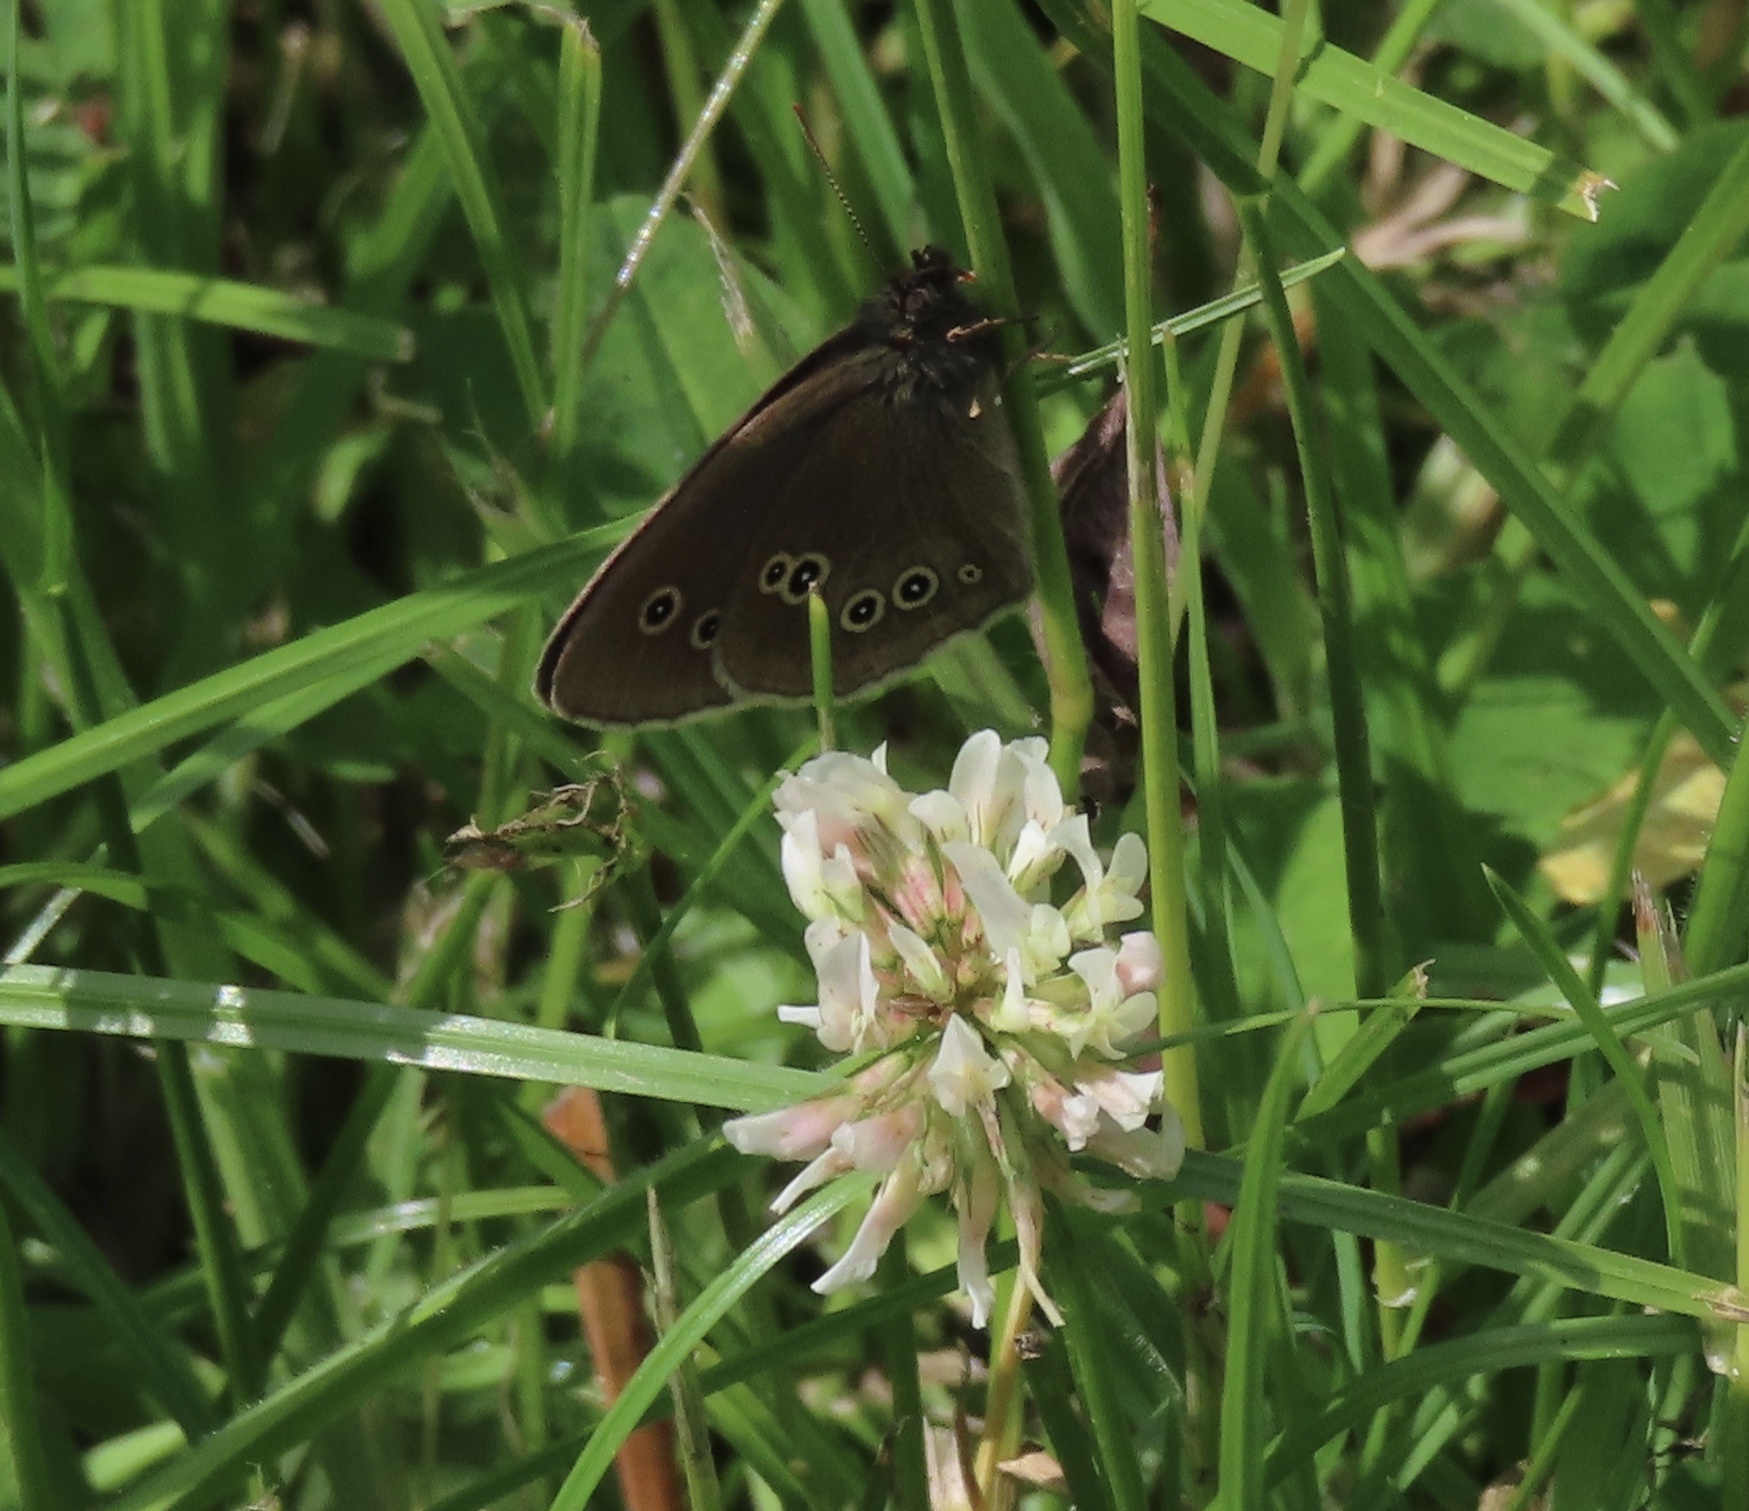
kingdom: Animalia
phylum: Arthropoda
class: Insecta
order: Lepidoptera
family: Nymphalidae
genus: Aphantopus
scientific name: Aphantopus hyperantus
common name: Ringlet
